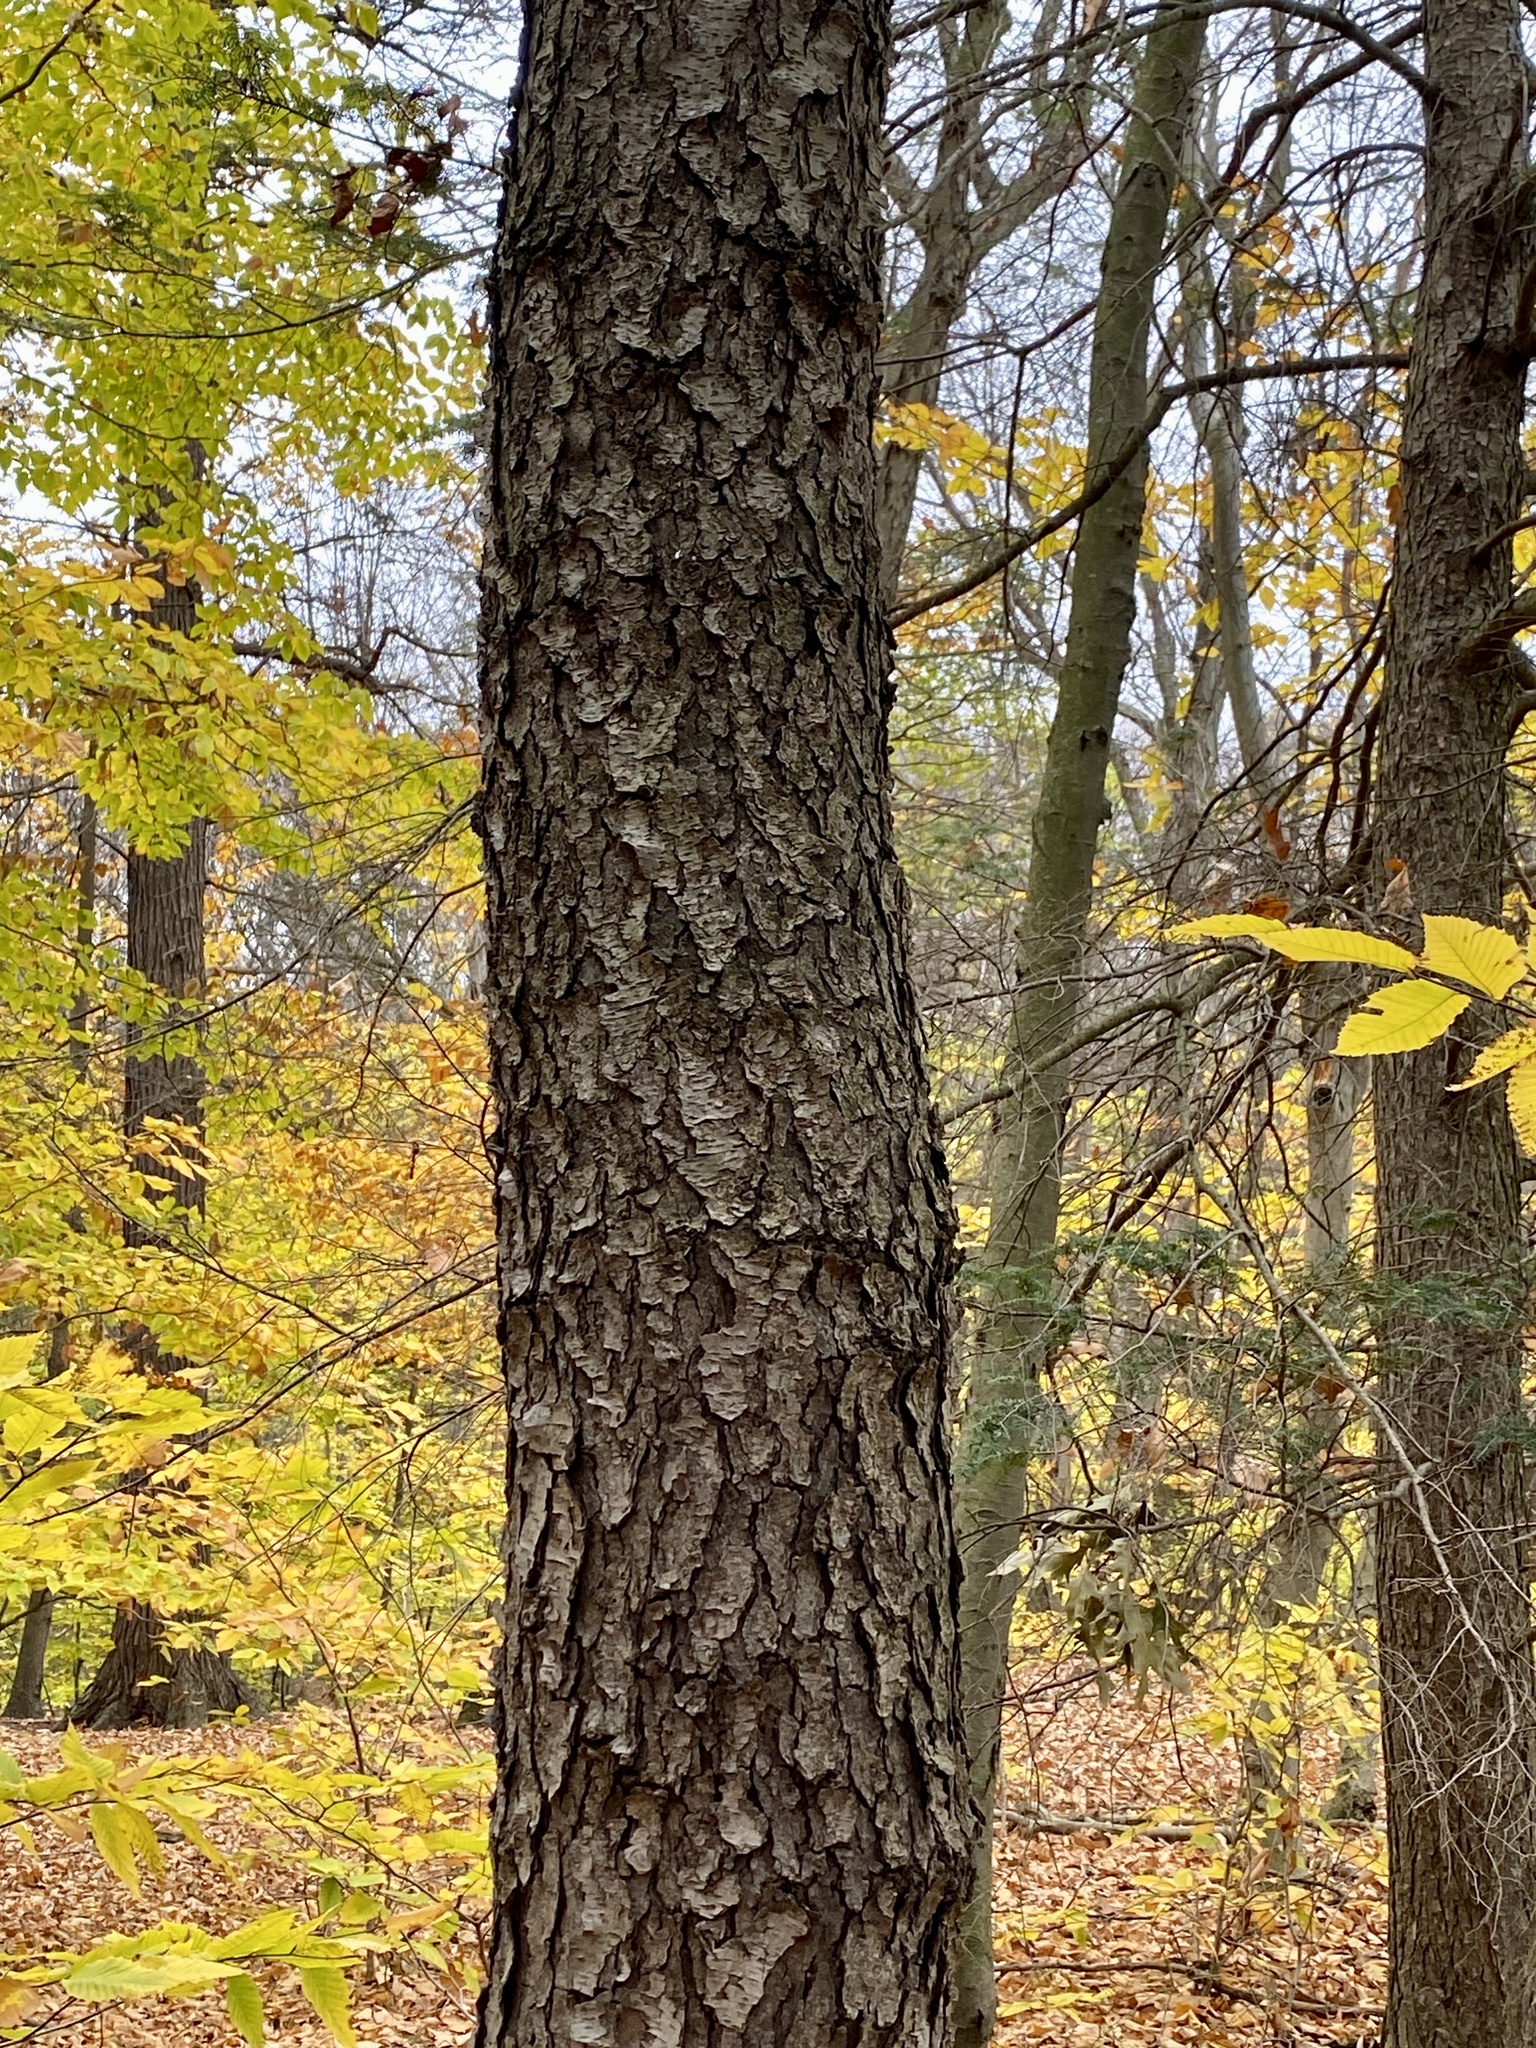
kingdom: Plantae
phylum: Tracheophyta
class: Magnoliopsida
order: Rosales
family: Rosaceae
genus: Prunus
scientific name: Prunus serotina
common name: Black cherry
